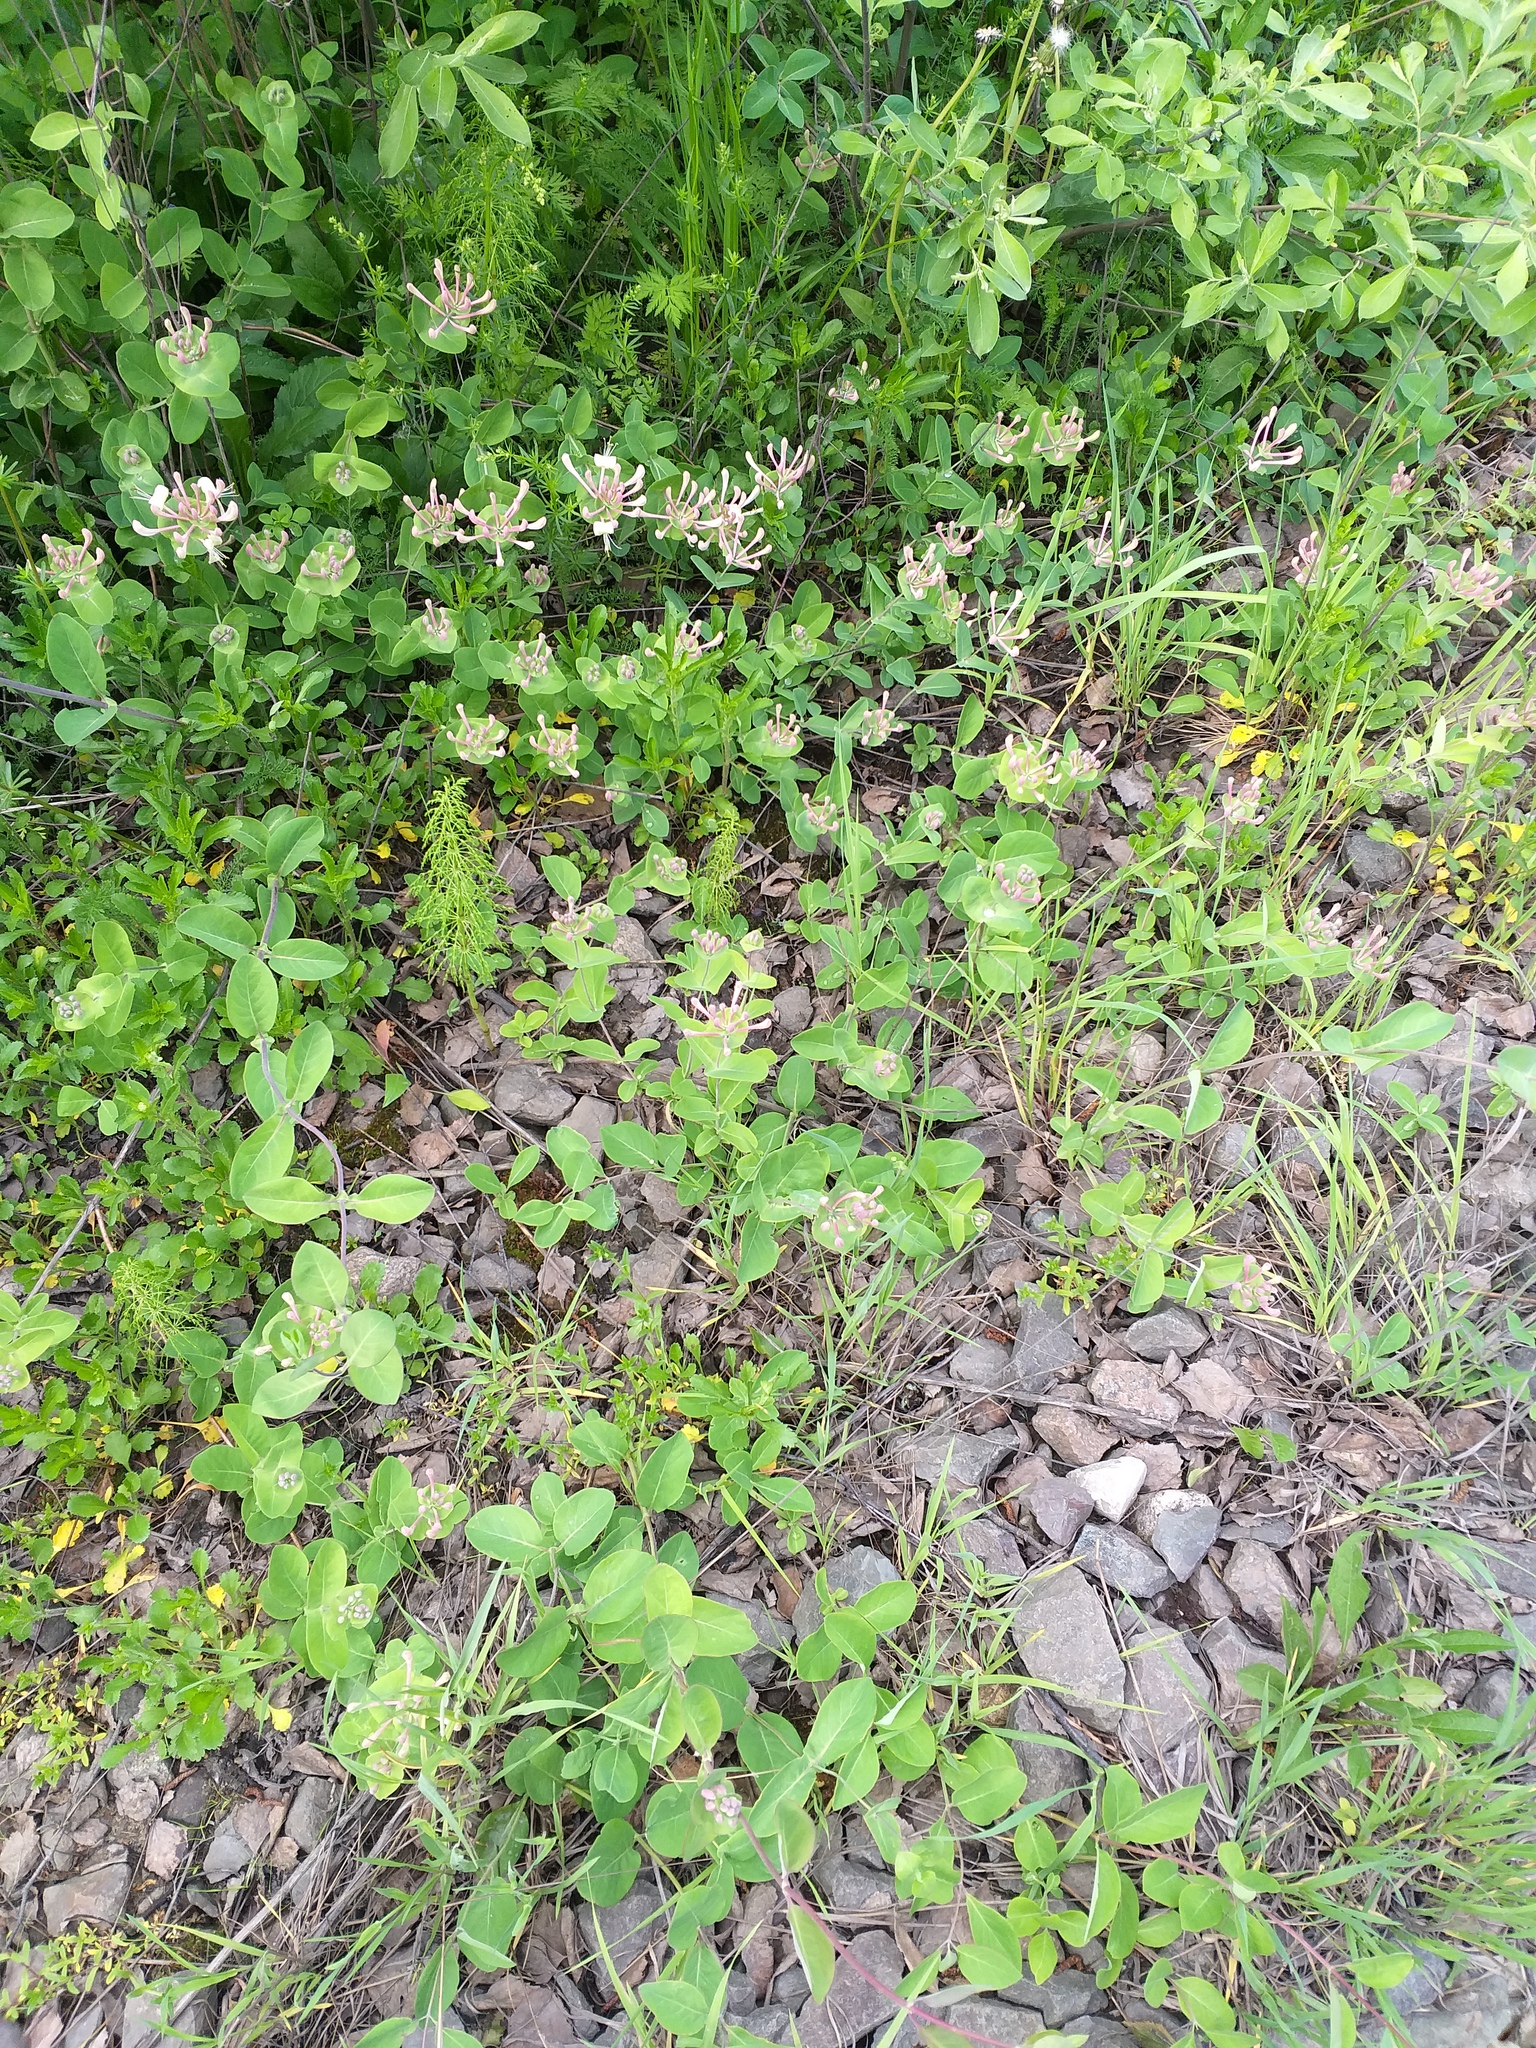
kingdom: Plantae
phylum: Tracheophyta
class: Magnoliopsida
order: Dipsacales
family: Caprifoliaceae
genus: Lonicera
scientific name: Lonicera caprifolium
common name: Perfoliate honeysuckle
